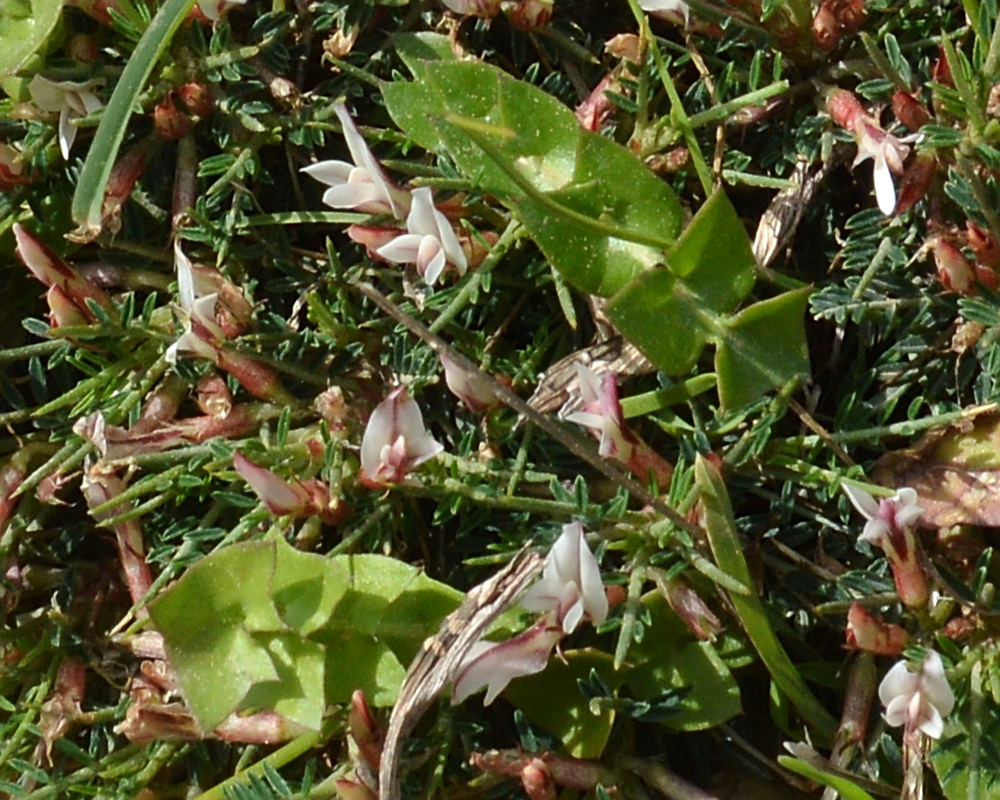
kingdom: Plantae
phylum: Tracheophyta
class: Magnoliopsida
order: Fabales
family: Fabaceae
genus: Astragalus
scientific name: Astragalus balearicus
